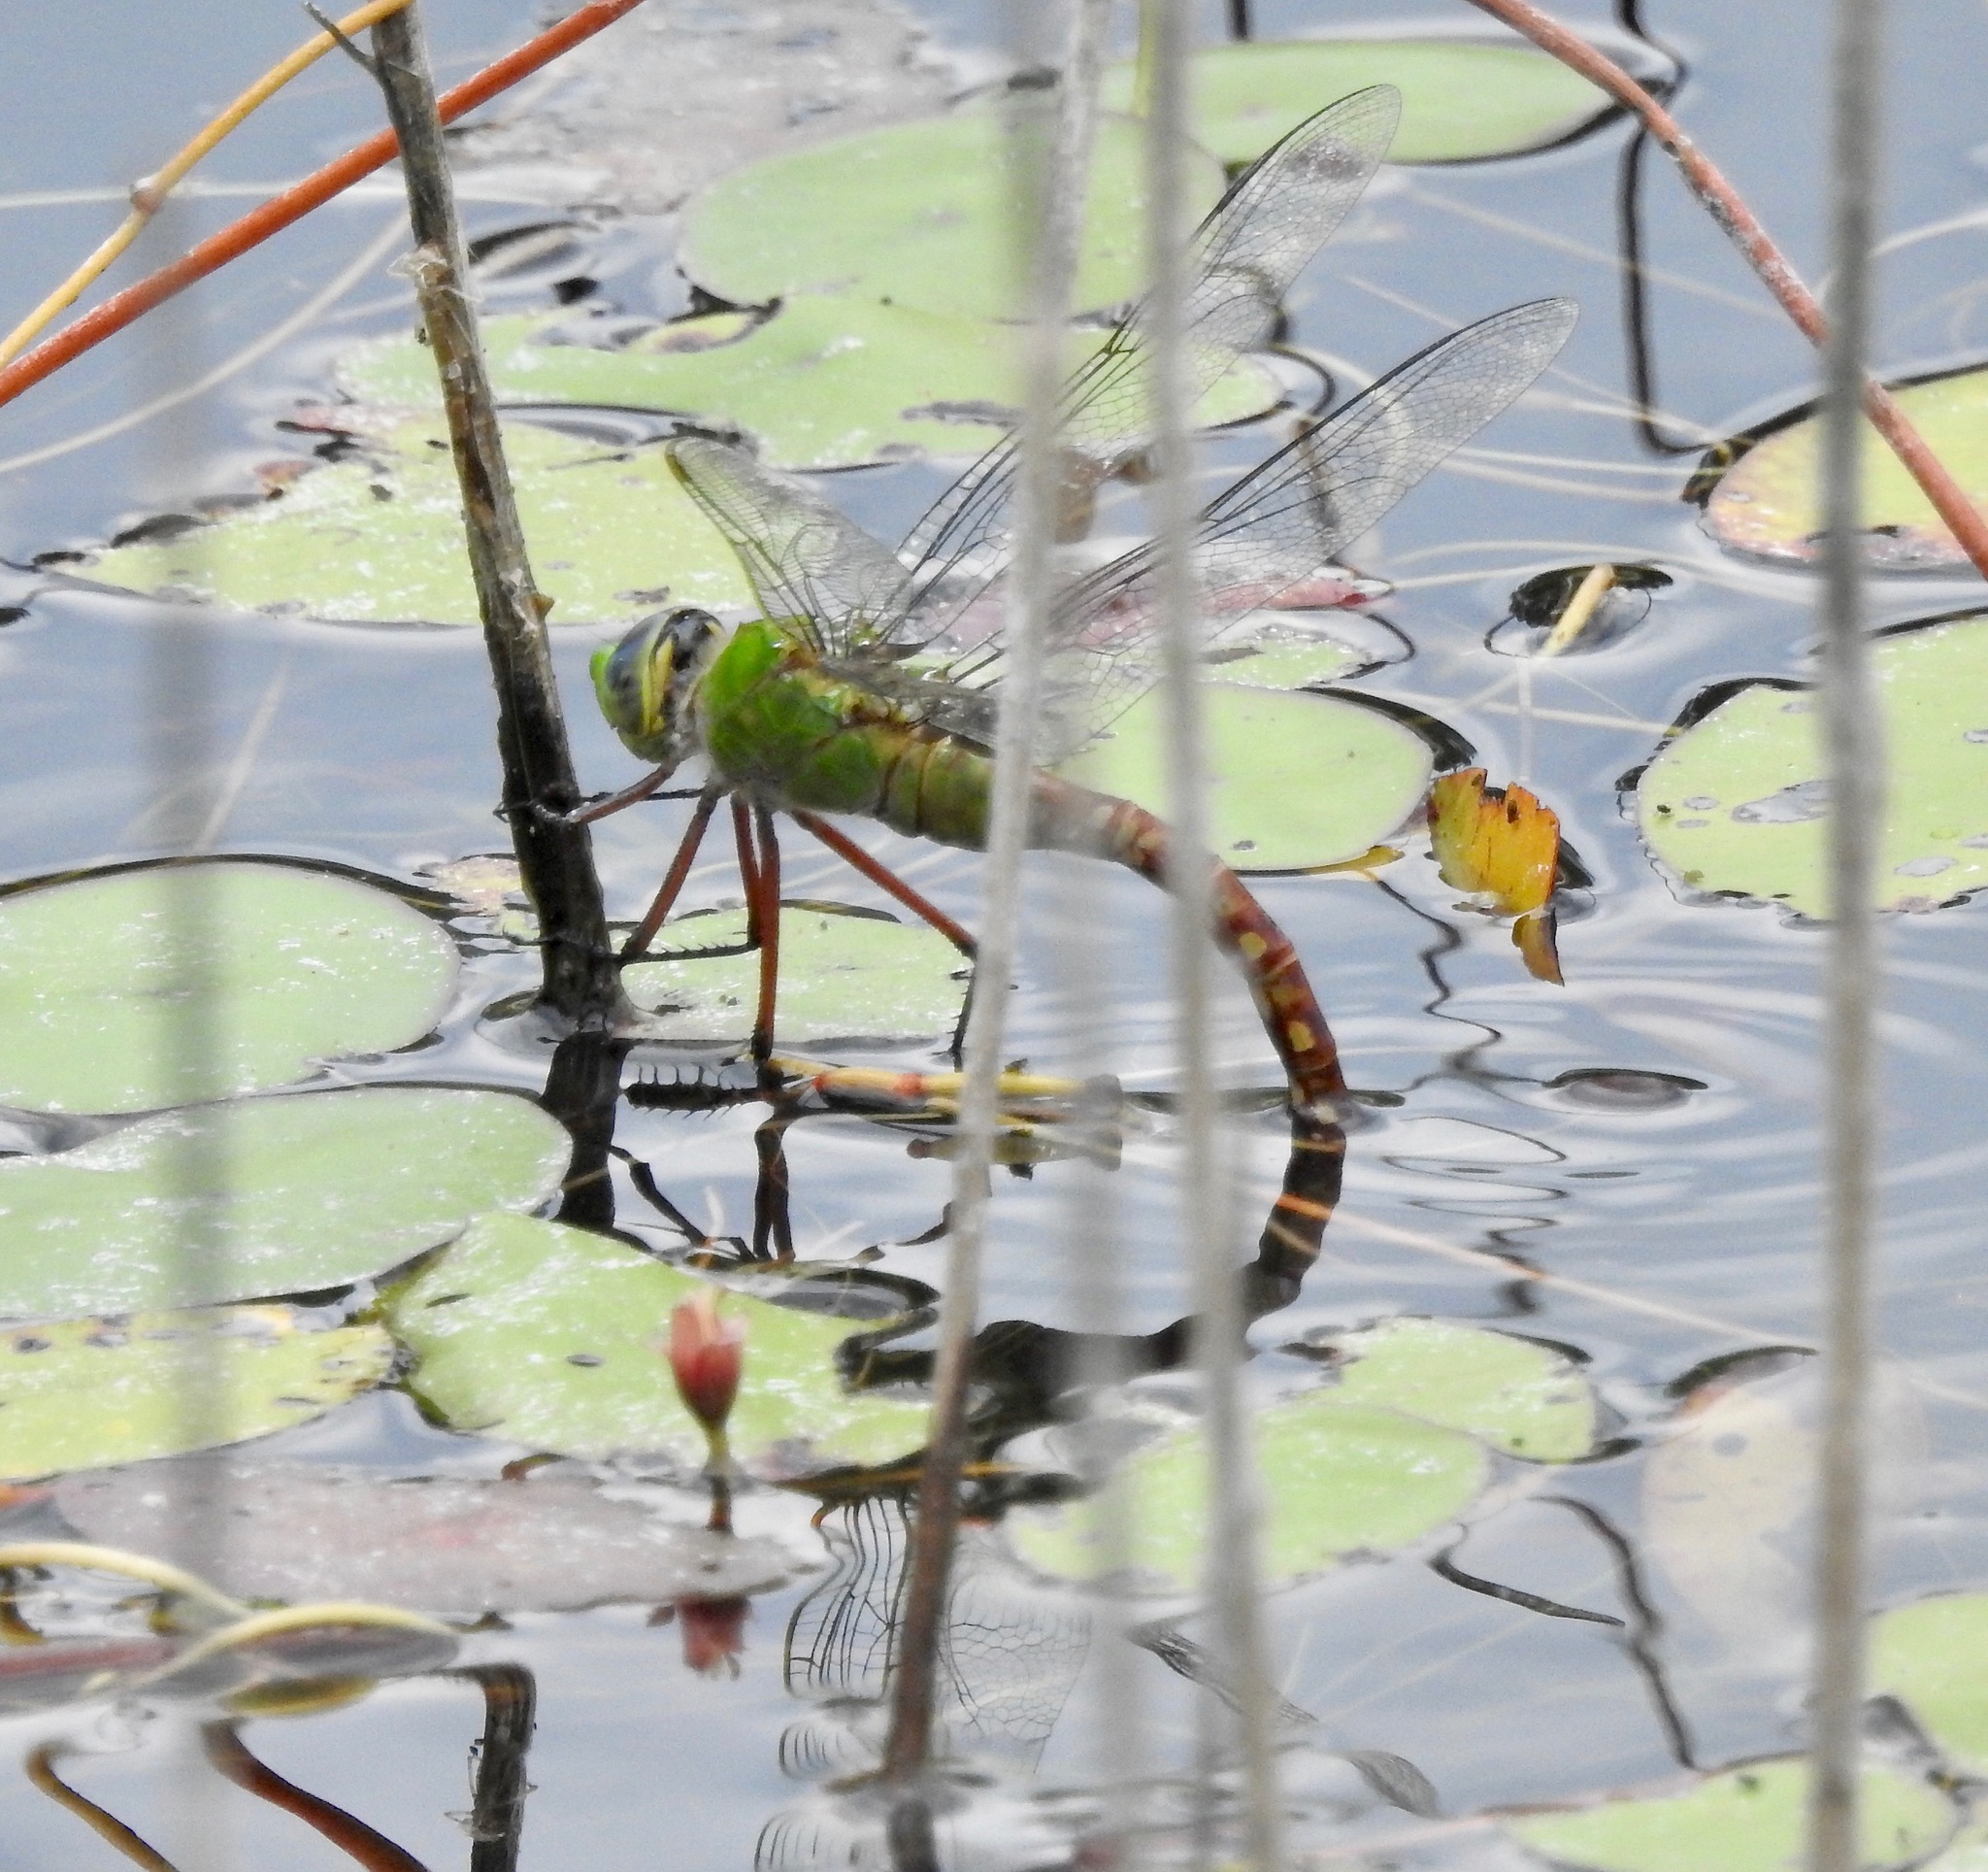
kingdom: Animalia
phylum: Arthropoda
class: Insecta
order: Odonata
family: Aeshnidae
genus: Anax
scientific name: Anax longipes
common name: Comet darner
